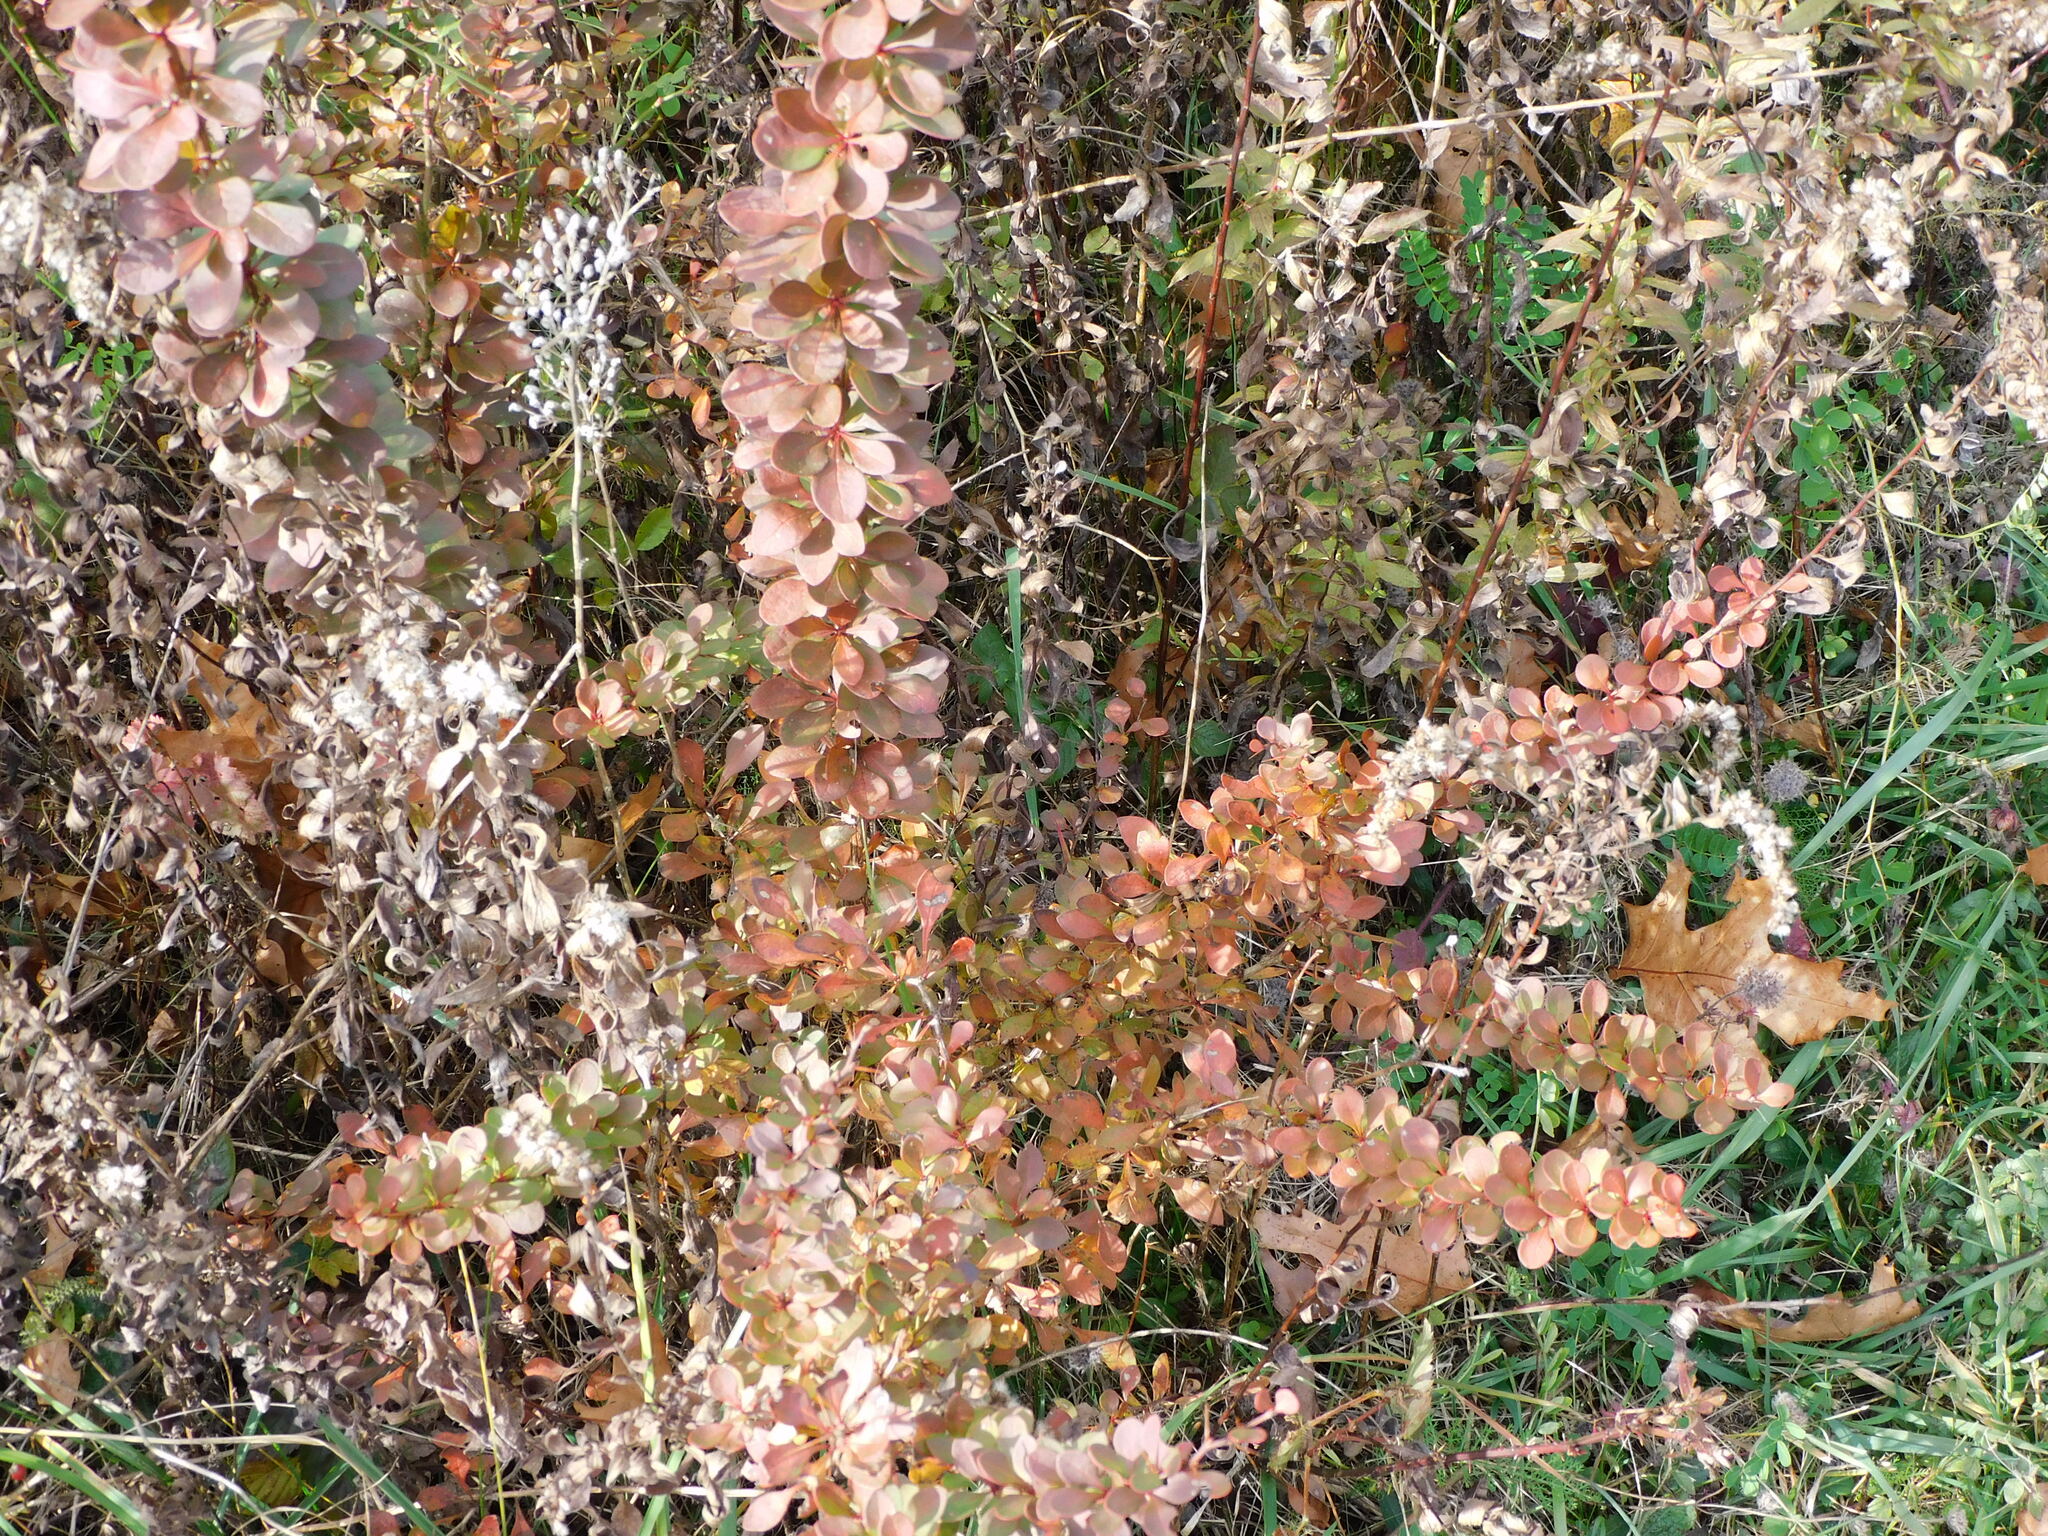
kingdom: Plantae
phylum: Tracheophyta
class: Magnoliopsida
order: Ranunculales
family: Berberidaceae
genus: Berberis
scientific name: Berberis thunbergii
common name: Japanese barberry
